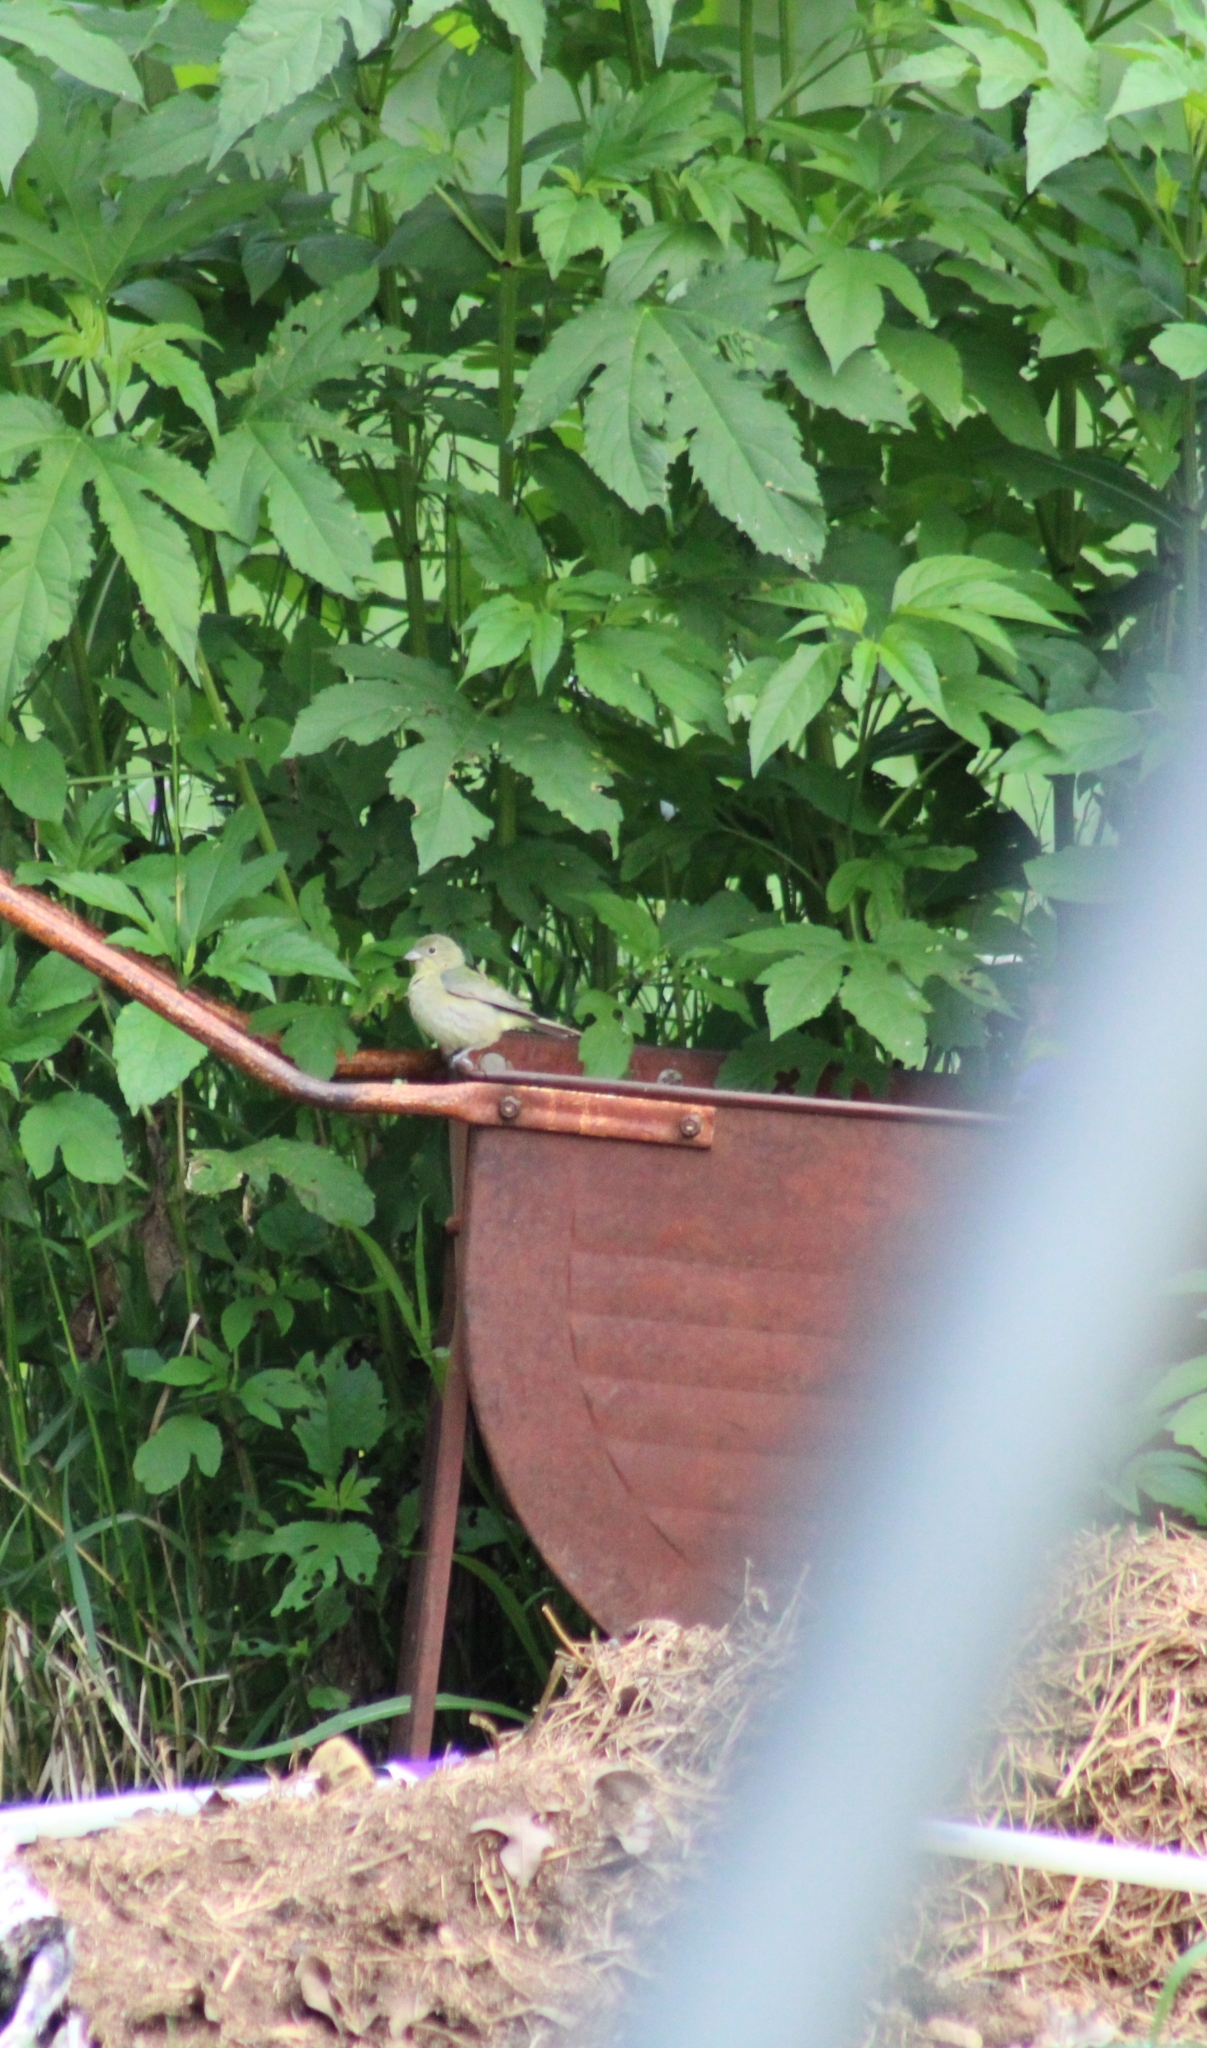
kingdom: Animalia
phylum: Chordata
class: Aves
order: Passeriformes
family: Cardinalidae
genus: Passerina
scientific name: Passerina ciris
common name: Painted bunting
